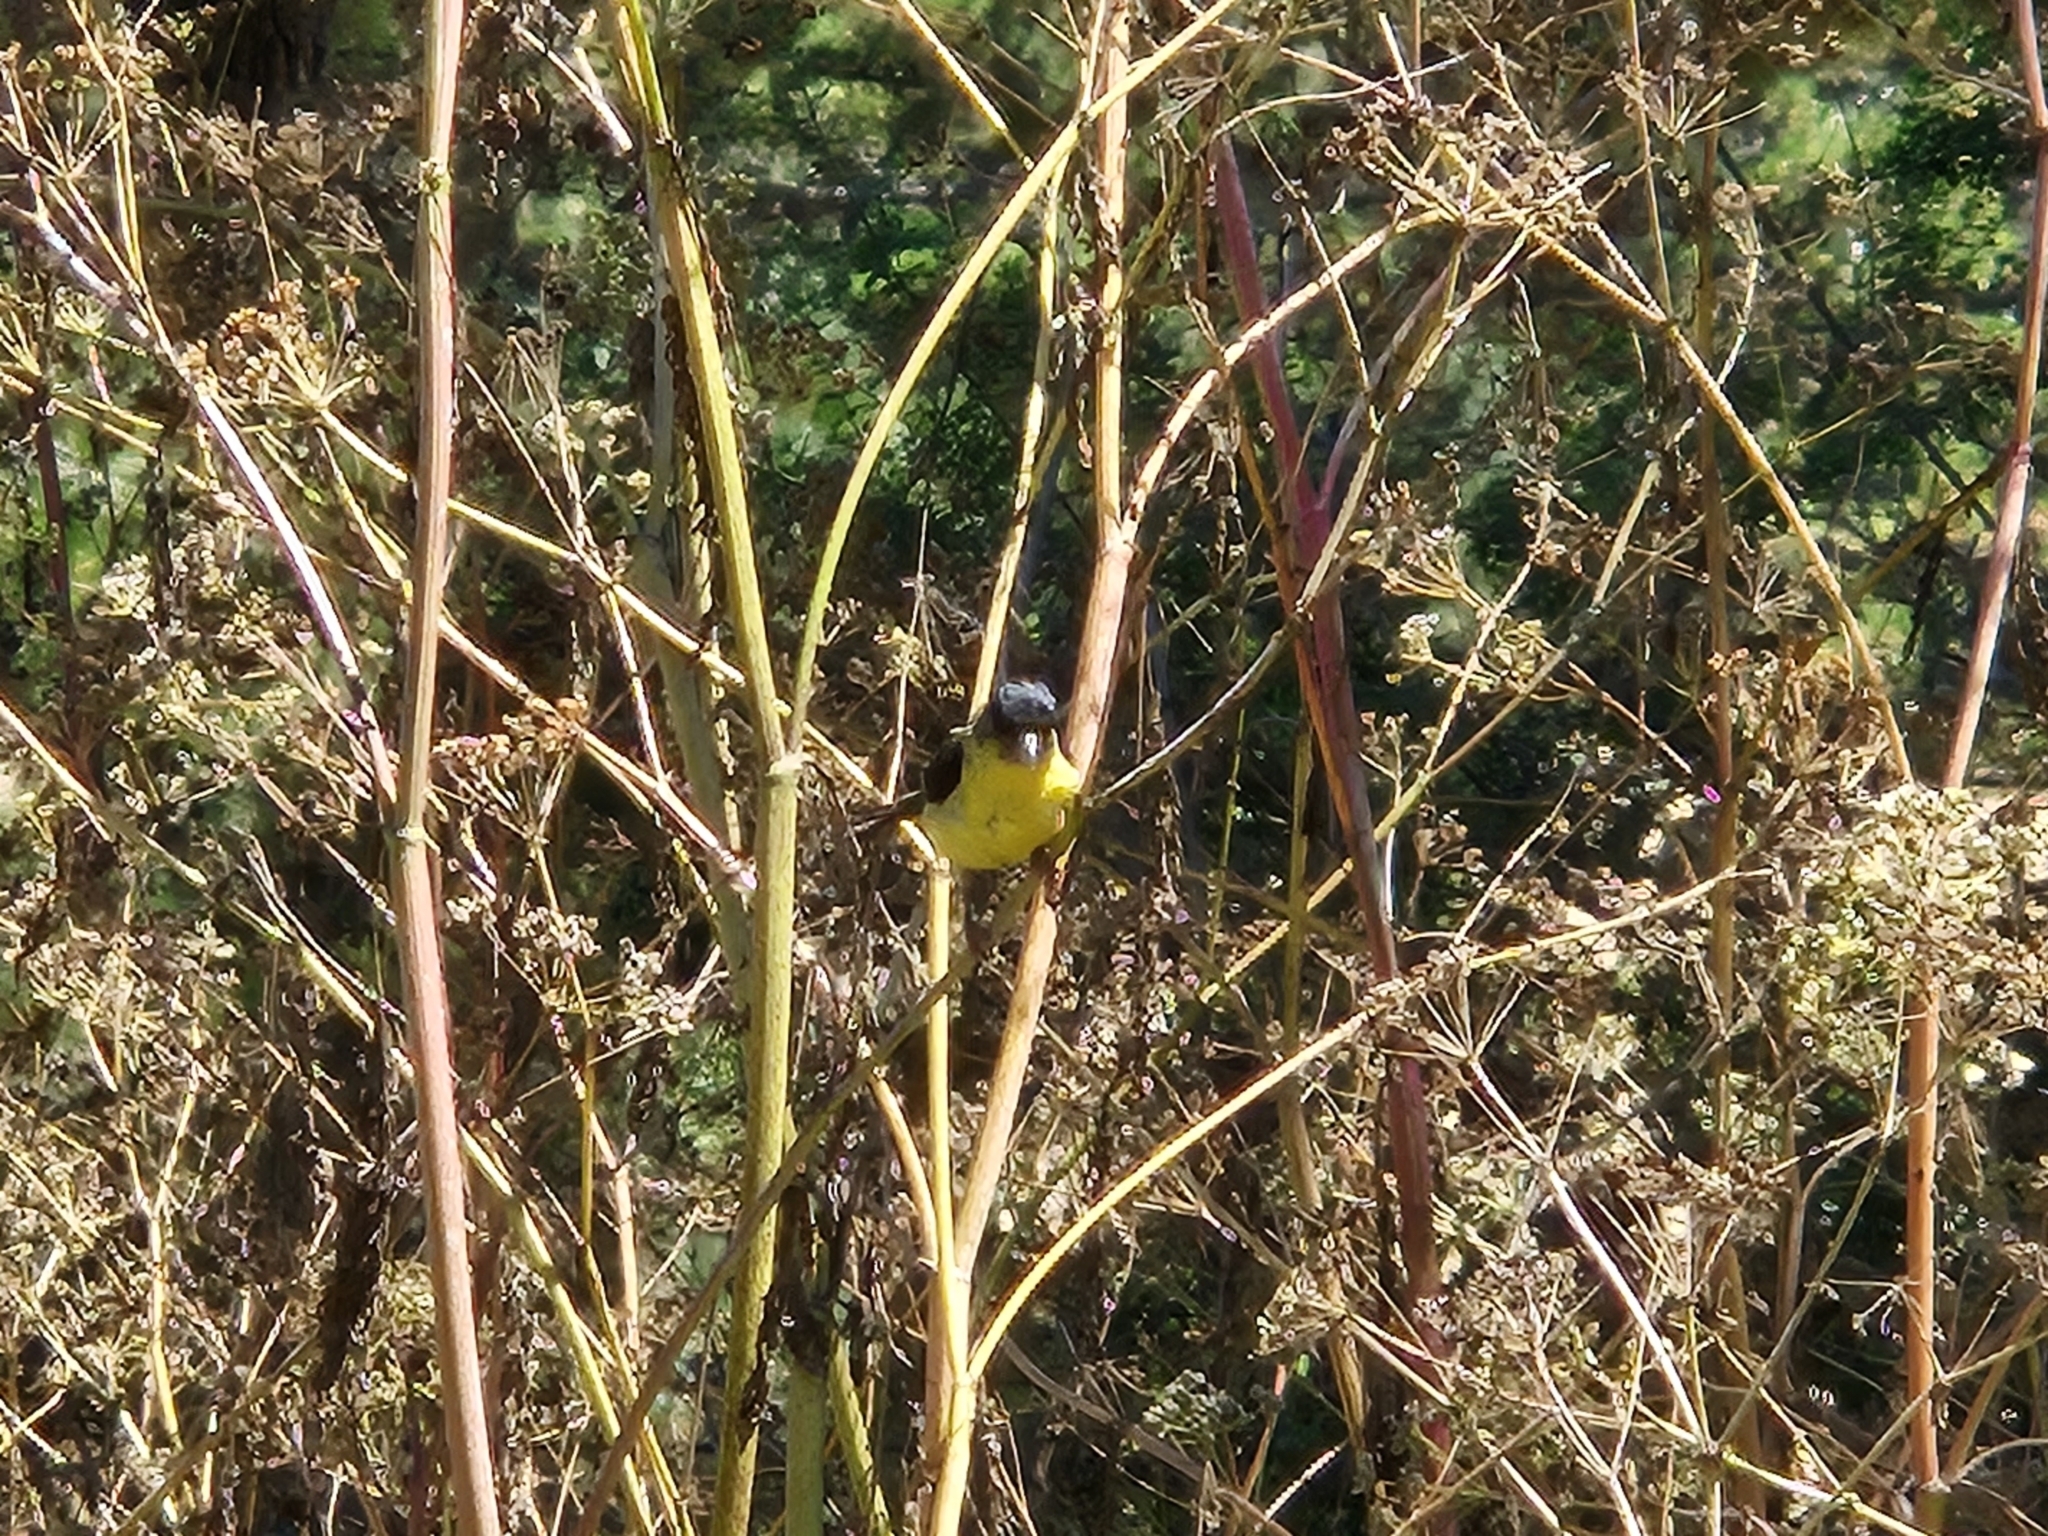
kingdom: Animalia
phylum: Chordata
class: Aves
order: Passeriformes
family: Fringillidae
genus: Spinus
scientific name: Spinus psaltria
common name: Lesser goldfinch
